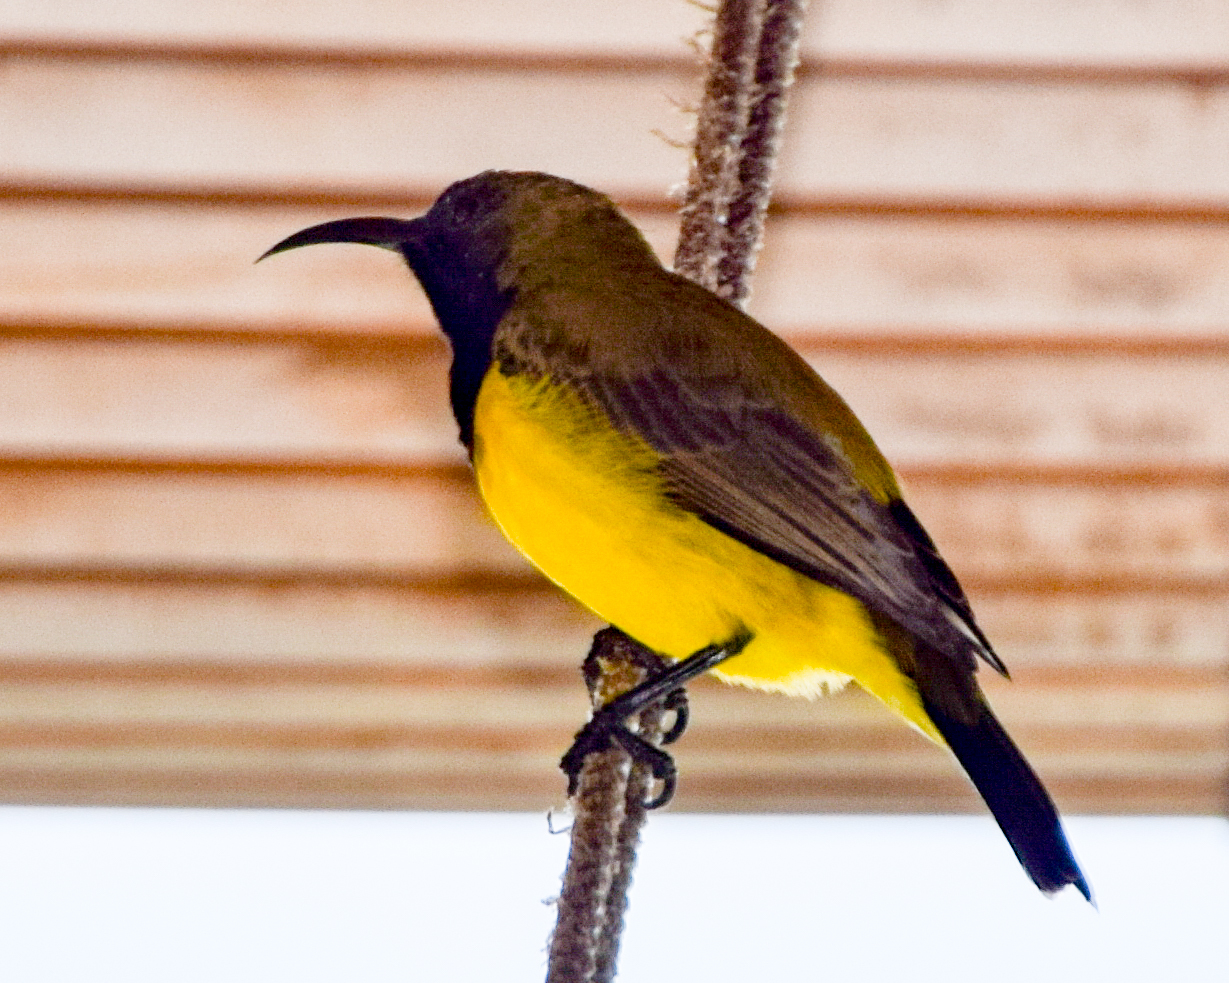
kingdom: Animalia
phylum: Chordata
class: Aves
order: Passeriformes
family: Nectariniidae
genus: Cinnyris
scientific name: Cinnyris
